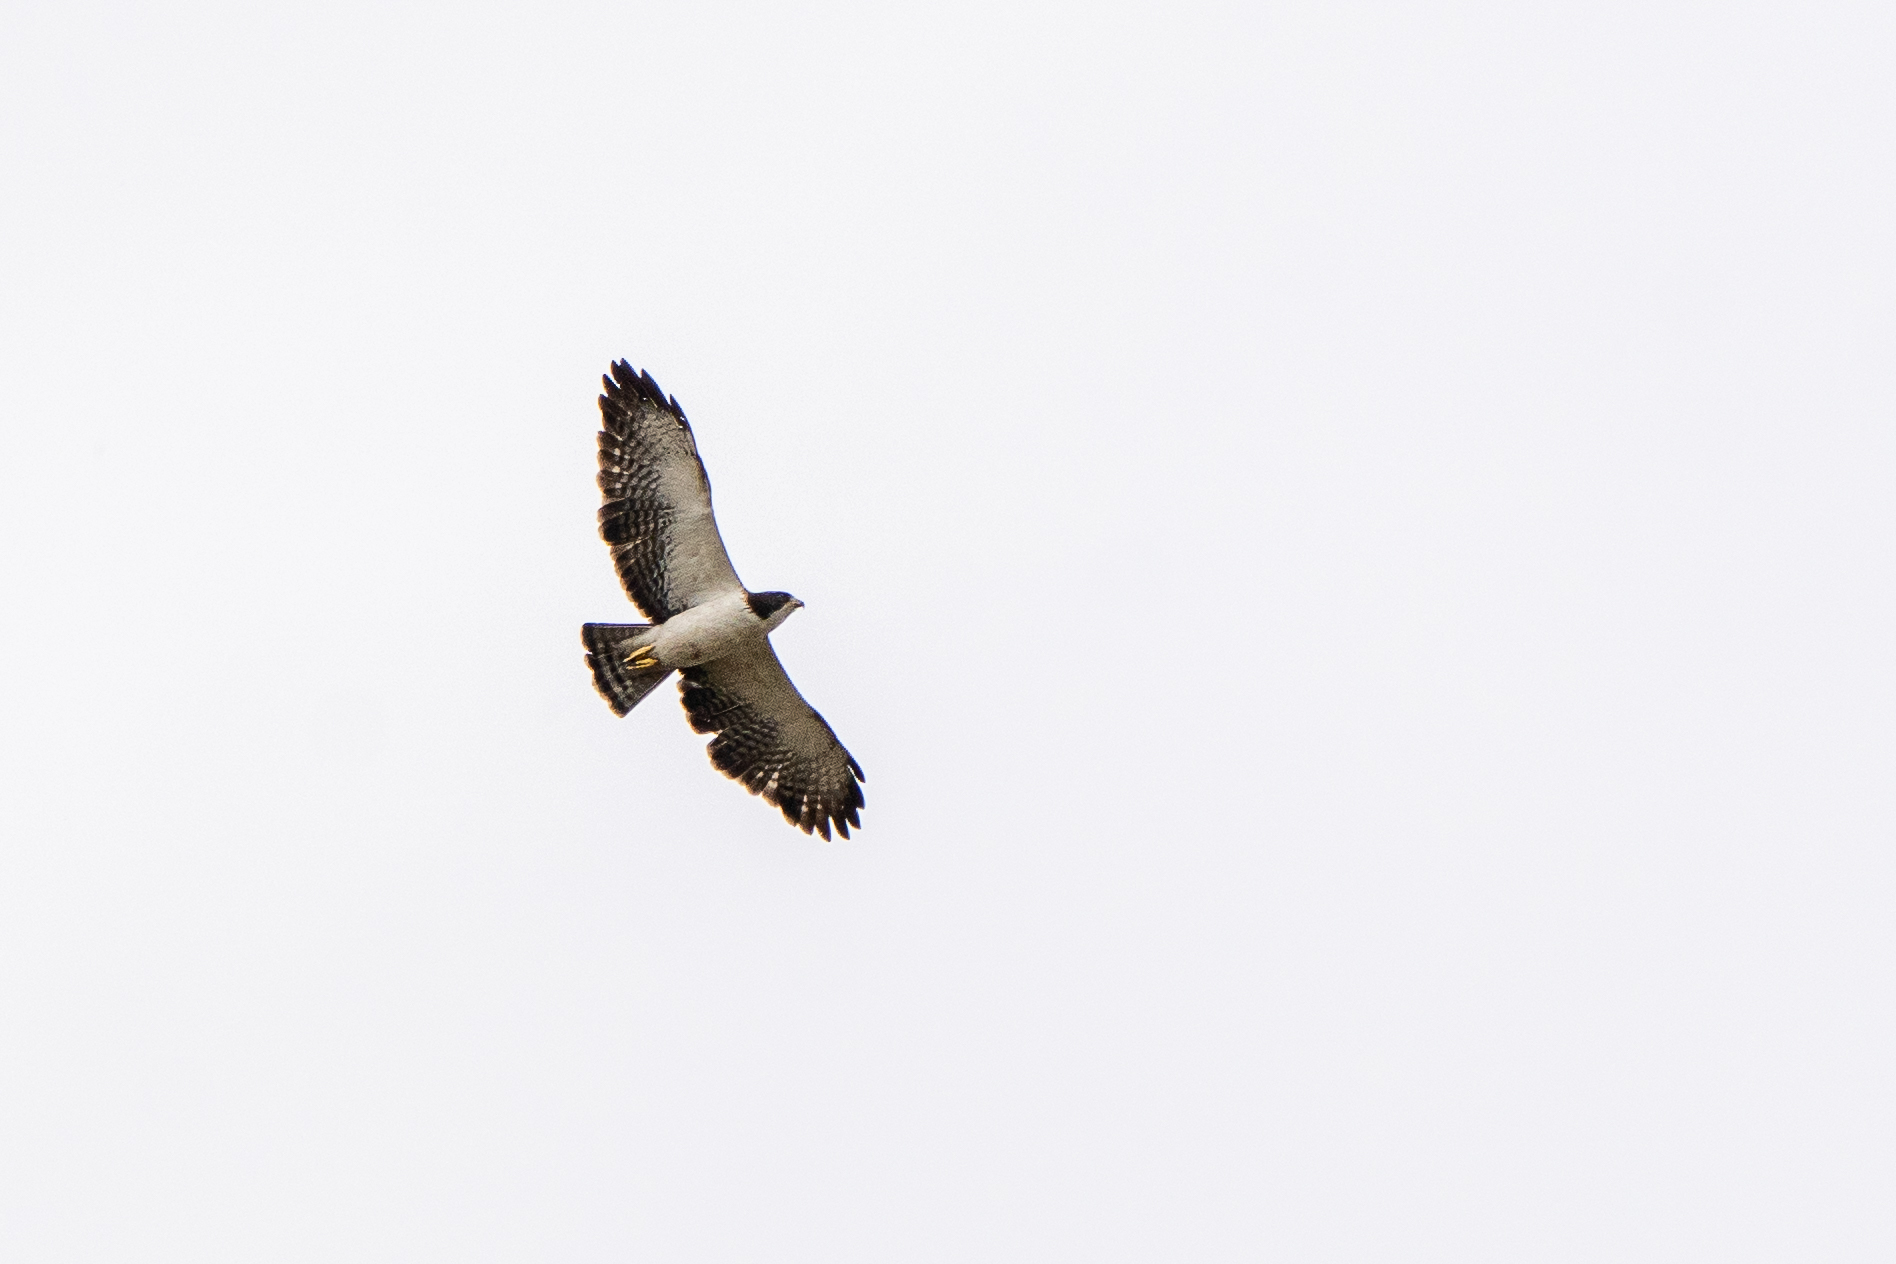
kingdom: Animalia
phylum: Chordata
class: Aves
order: Accipitriformes
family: Accipitridae
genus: Buteo
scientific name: Buteo brachyurus
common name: Short-tailed hawk
